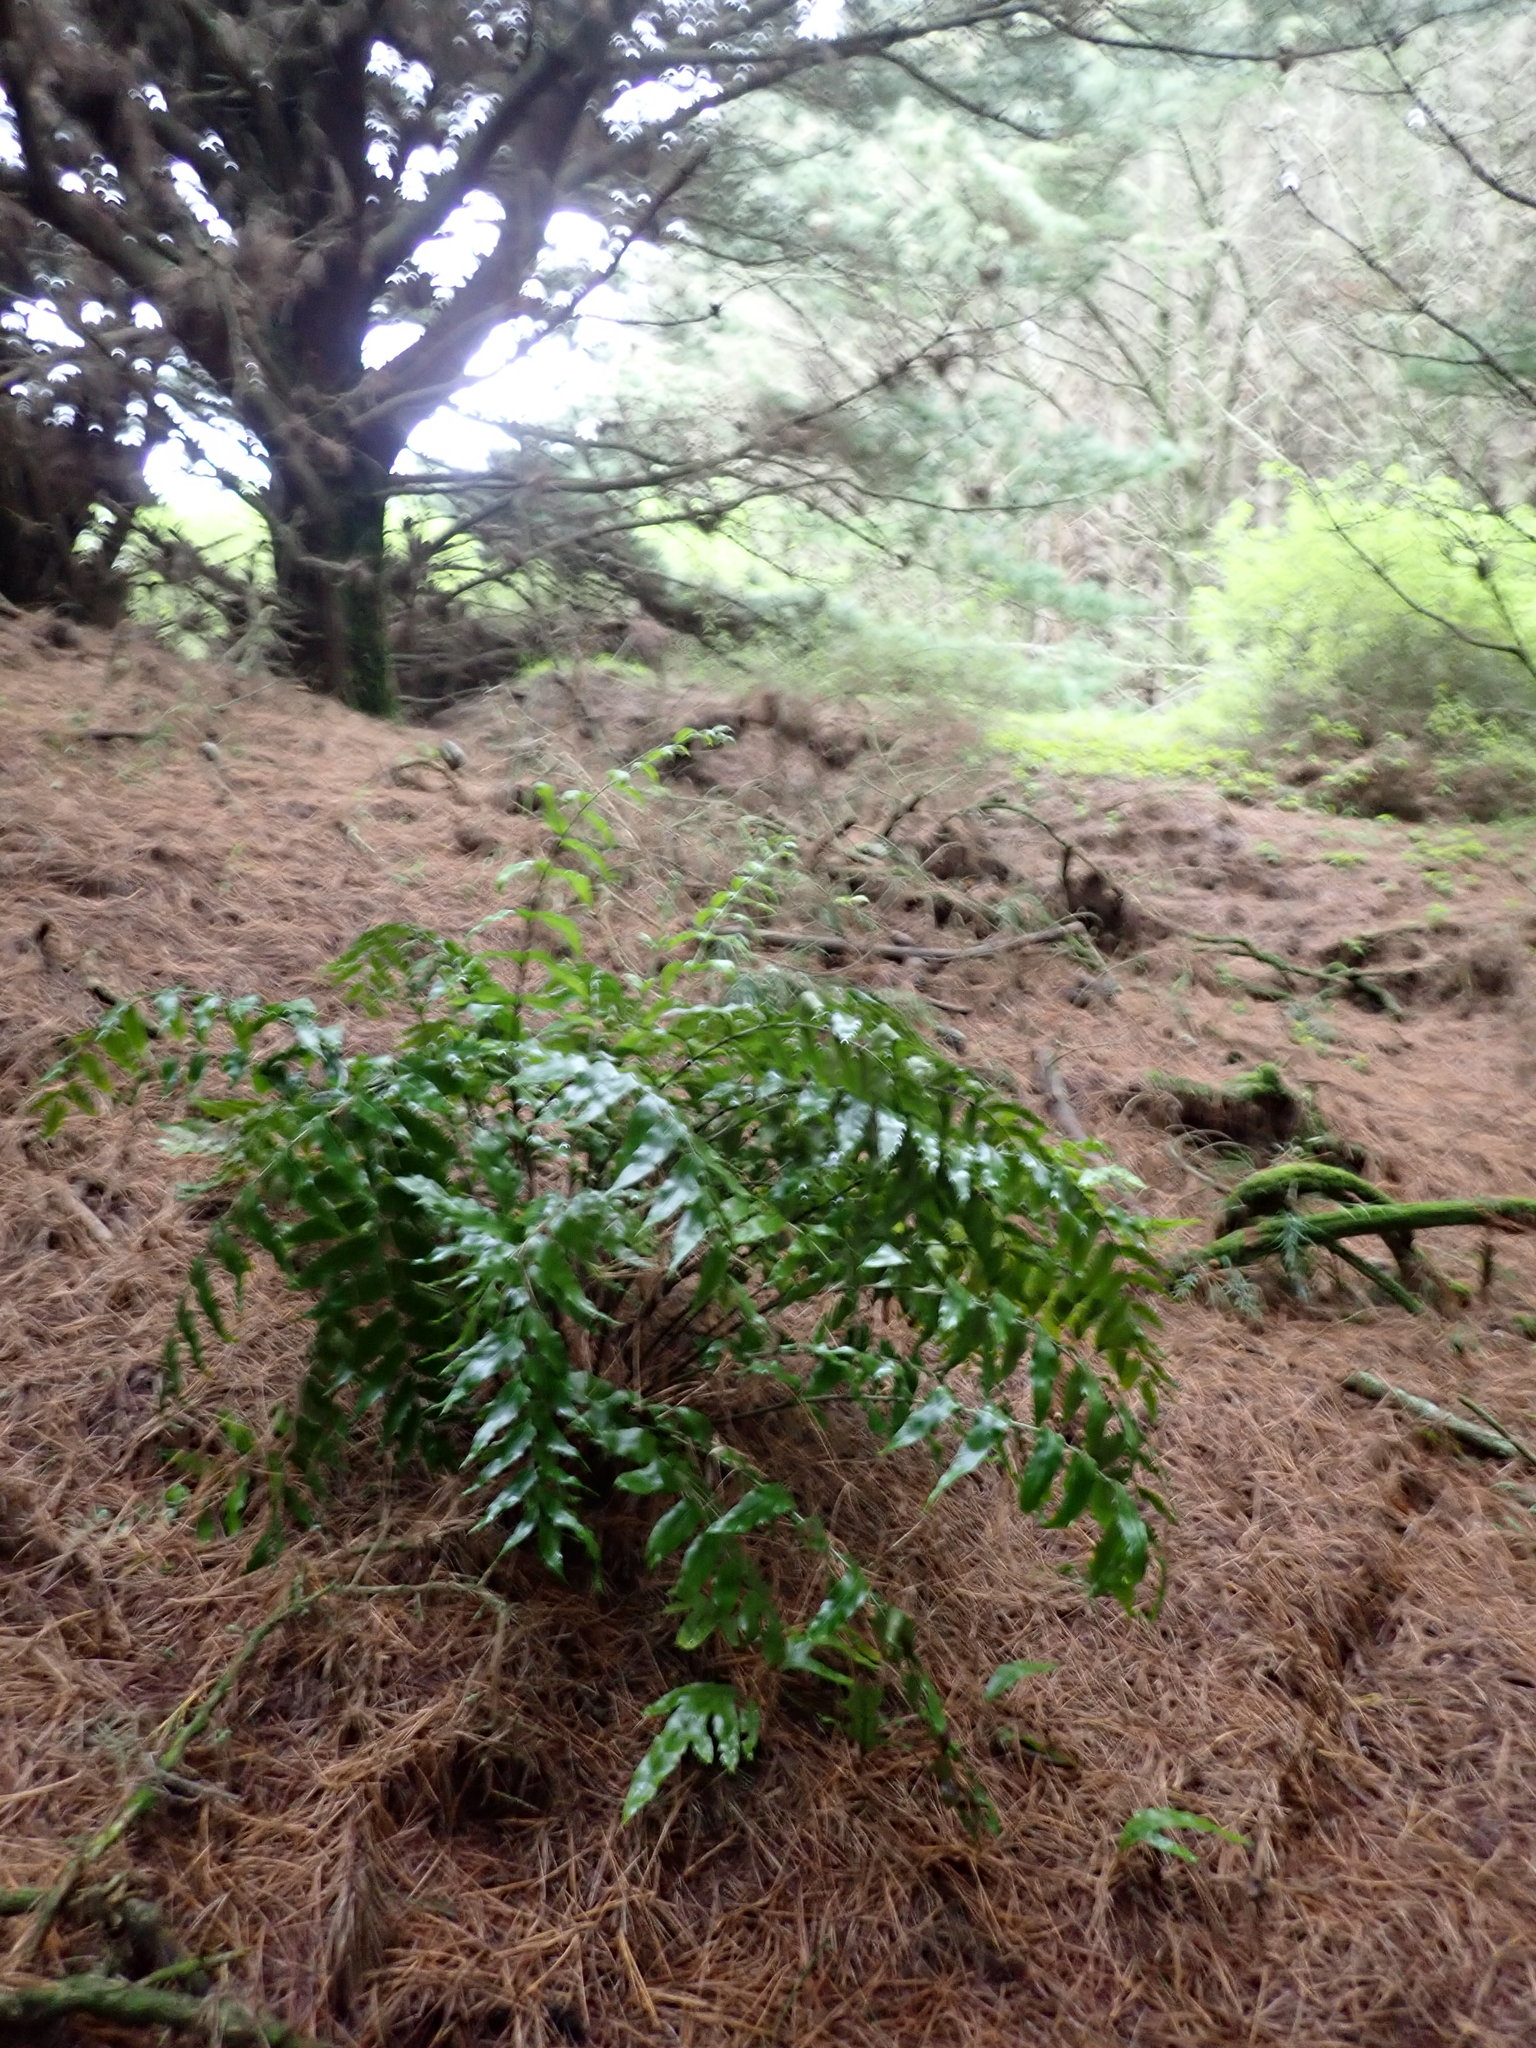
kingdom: Plantae
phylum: Tracheophyta
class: Polypodiopsida
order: Polypodiales
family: Aspleniaceae
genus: Asplenium
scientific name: Asplenium oblongifolium
